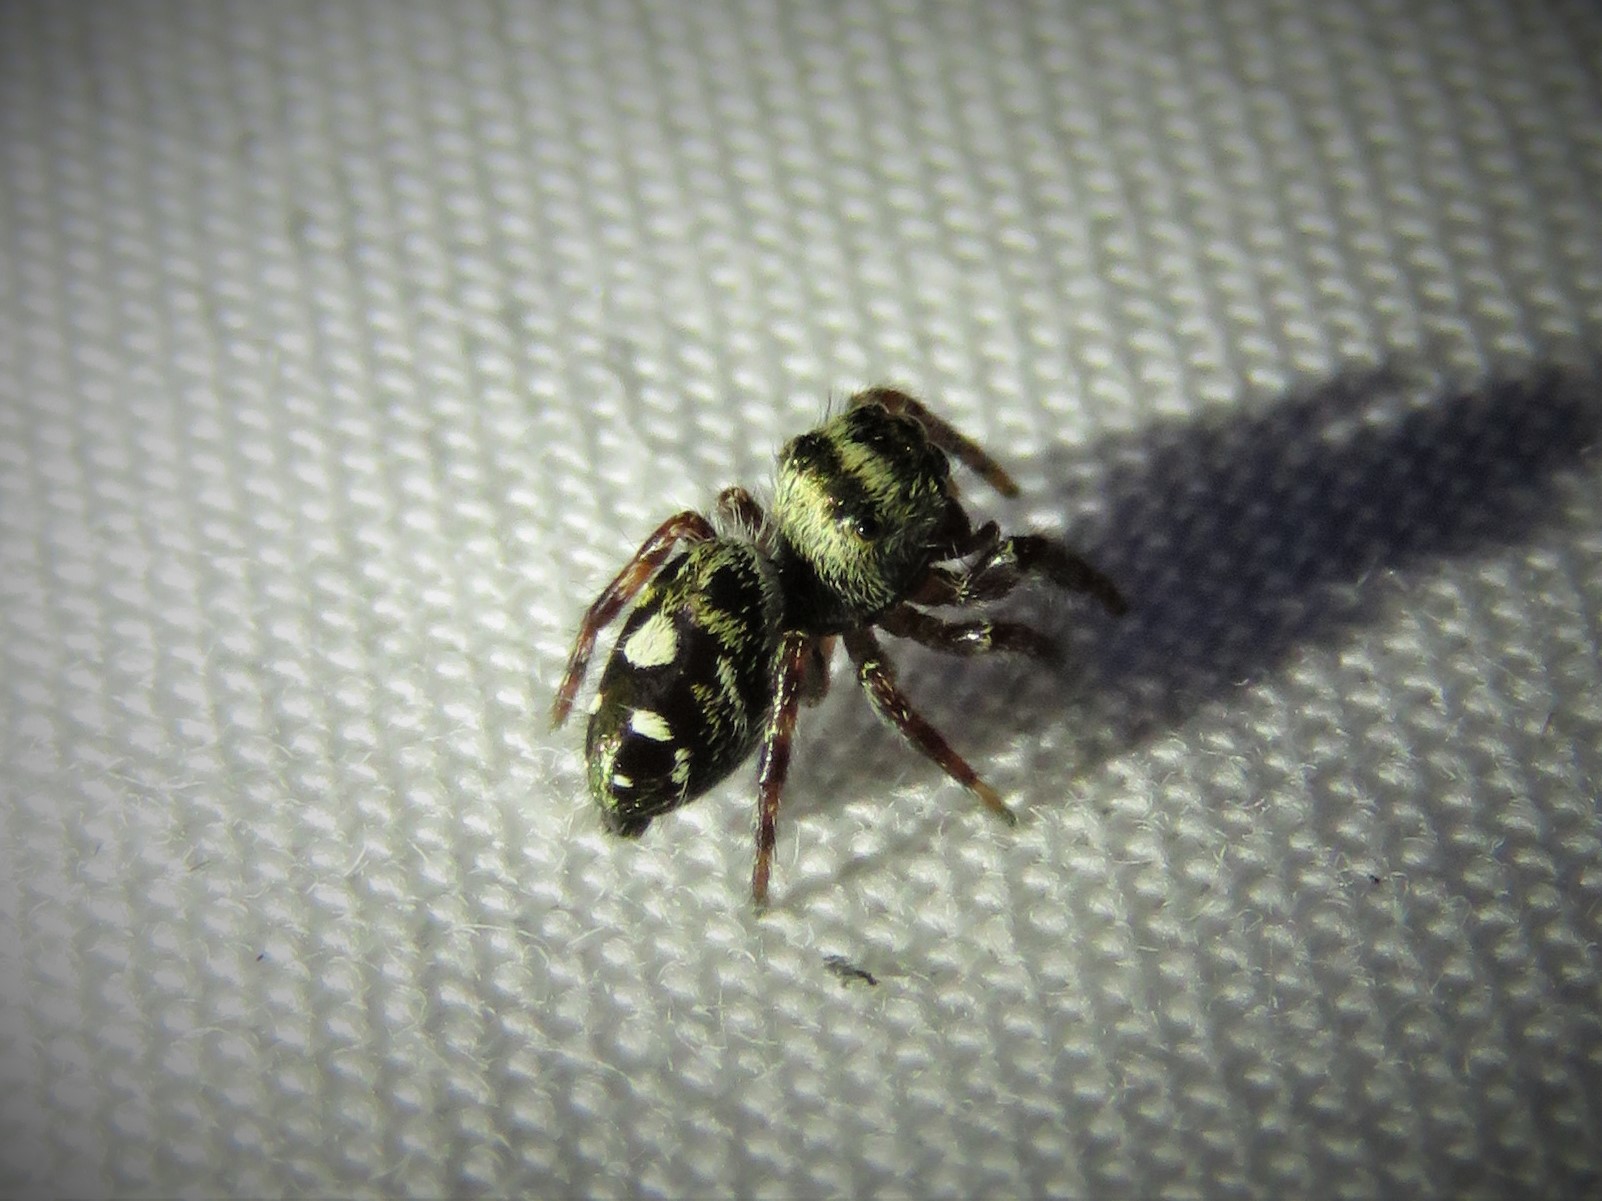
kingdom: Animalia
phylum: Arthropoda
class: Arachnida
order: Araneae
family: Salticidae
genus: Phidippus
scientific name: Phidippus audax
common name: Bold jumper
